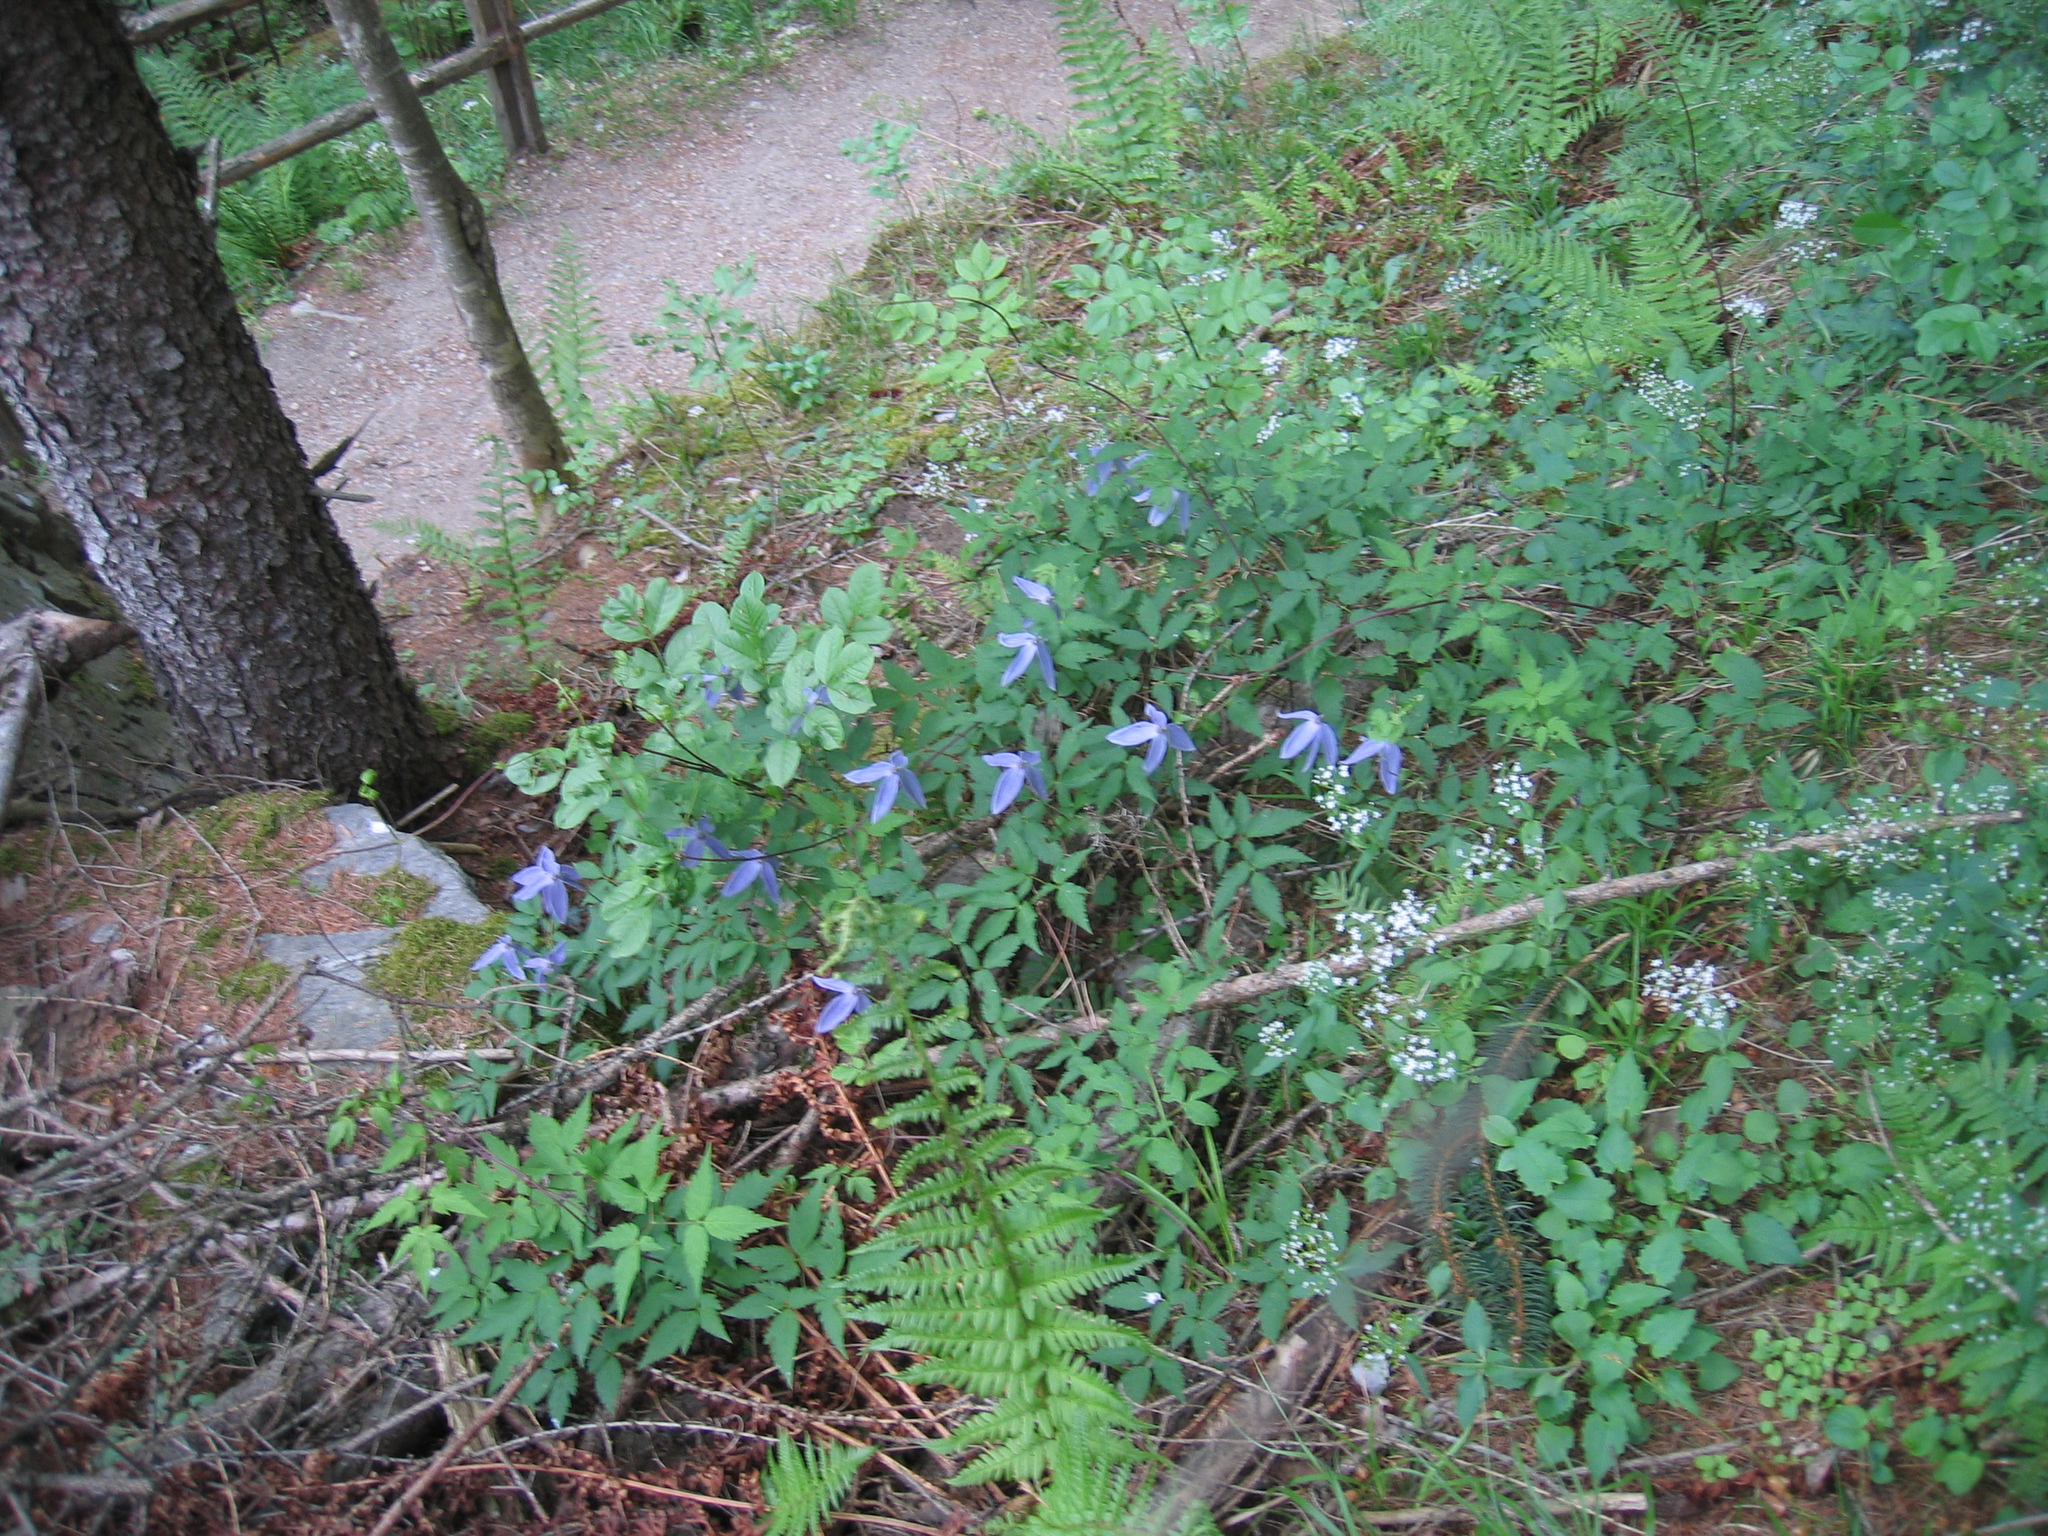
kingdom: Plantae
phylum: Tracheophyta
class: Magnoliopsida
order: Ranunculales
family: Ranunculaceae
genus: Clematis
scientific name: Clematis alpina
